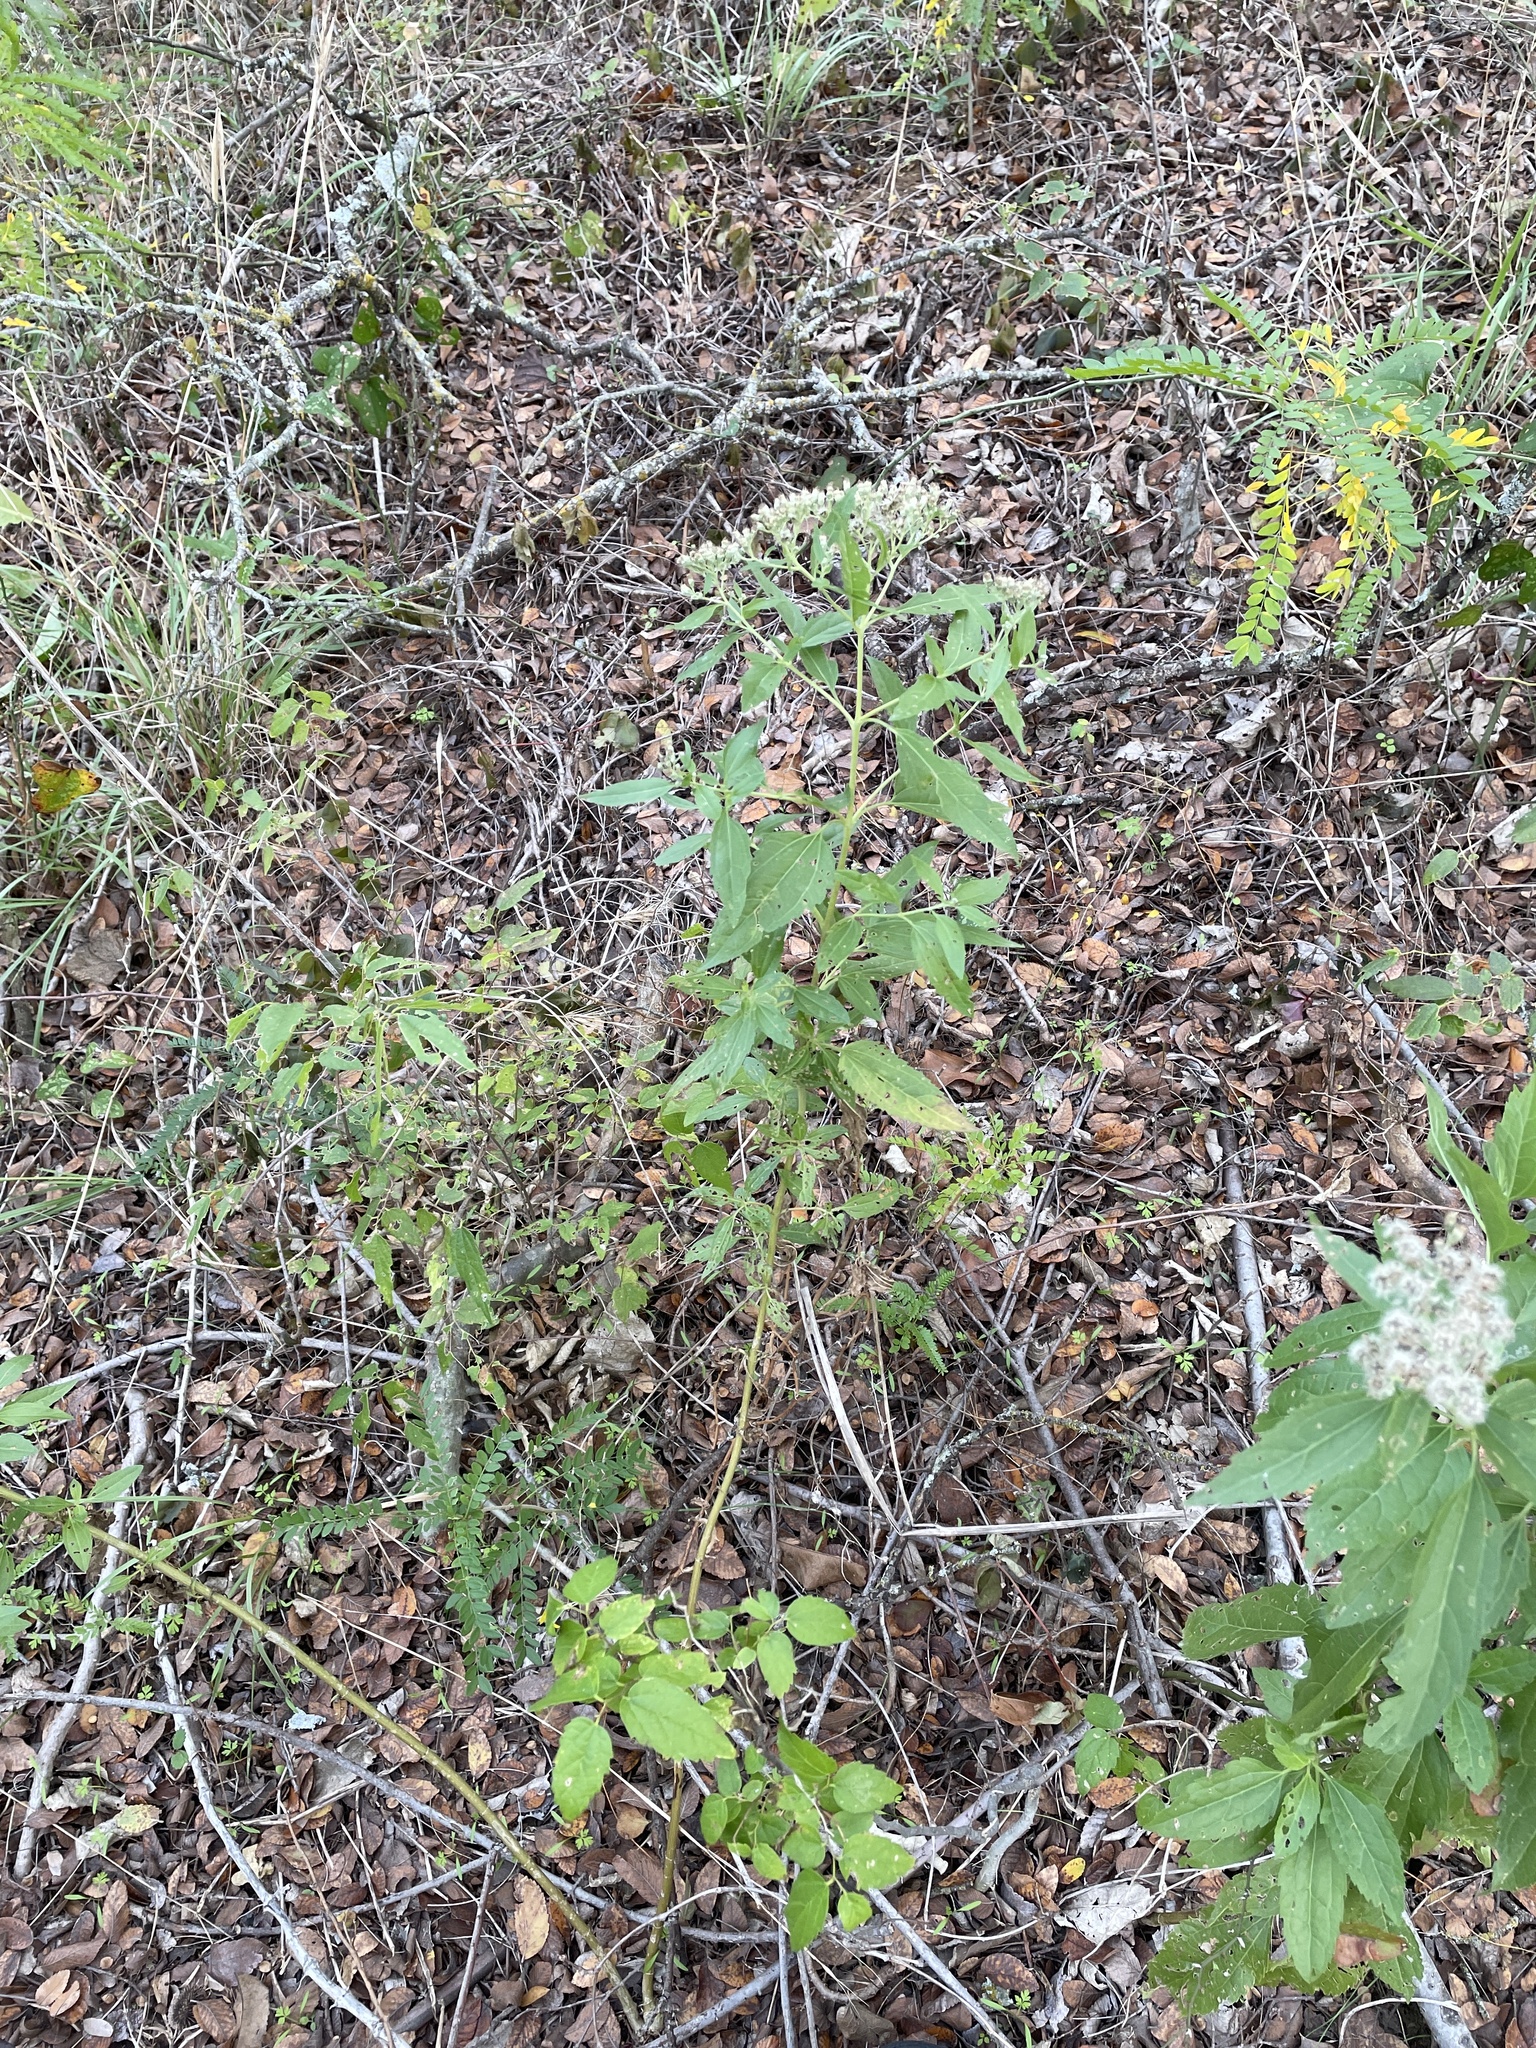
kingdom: Plantae
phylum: Tracheophyta
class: Magnoliopsida
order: Asterales
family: Asteraceae
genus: Eupatorium
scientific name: Eupatorium serotinum
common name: Late boneset
